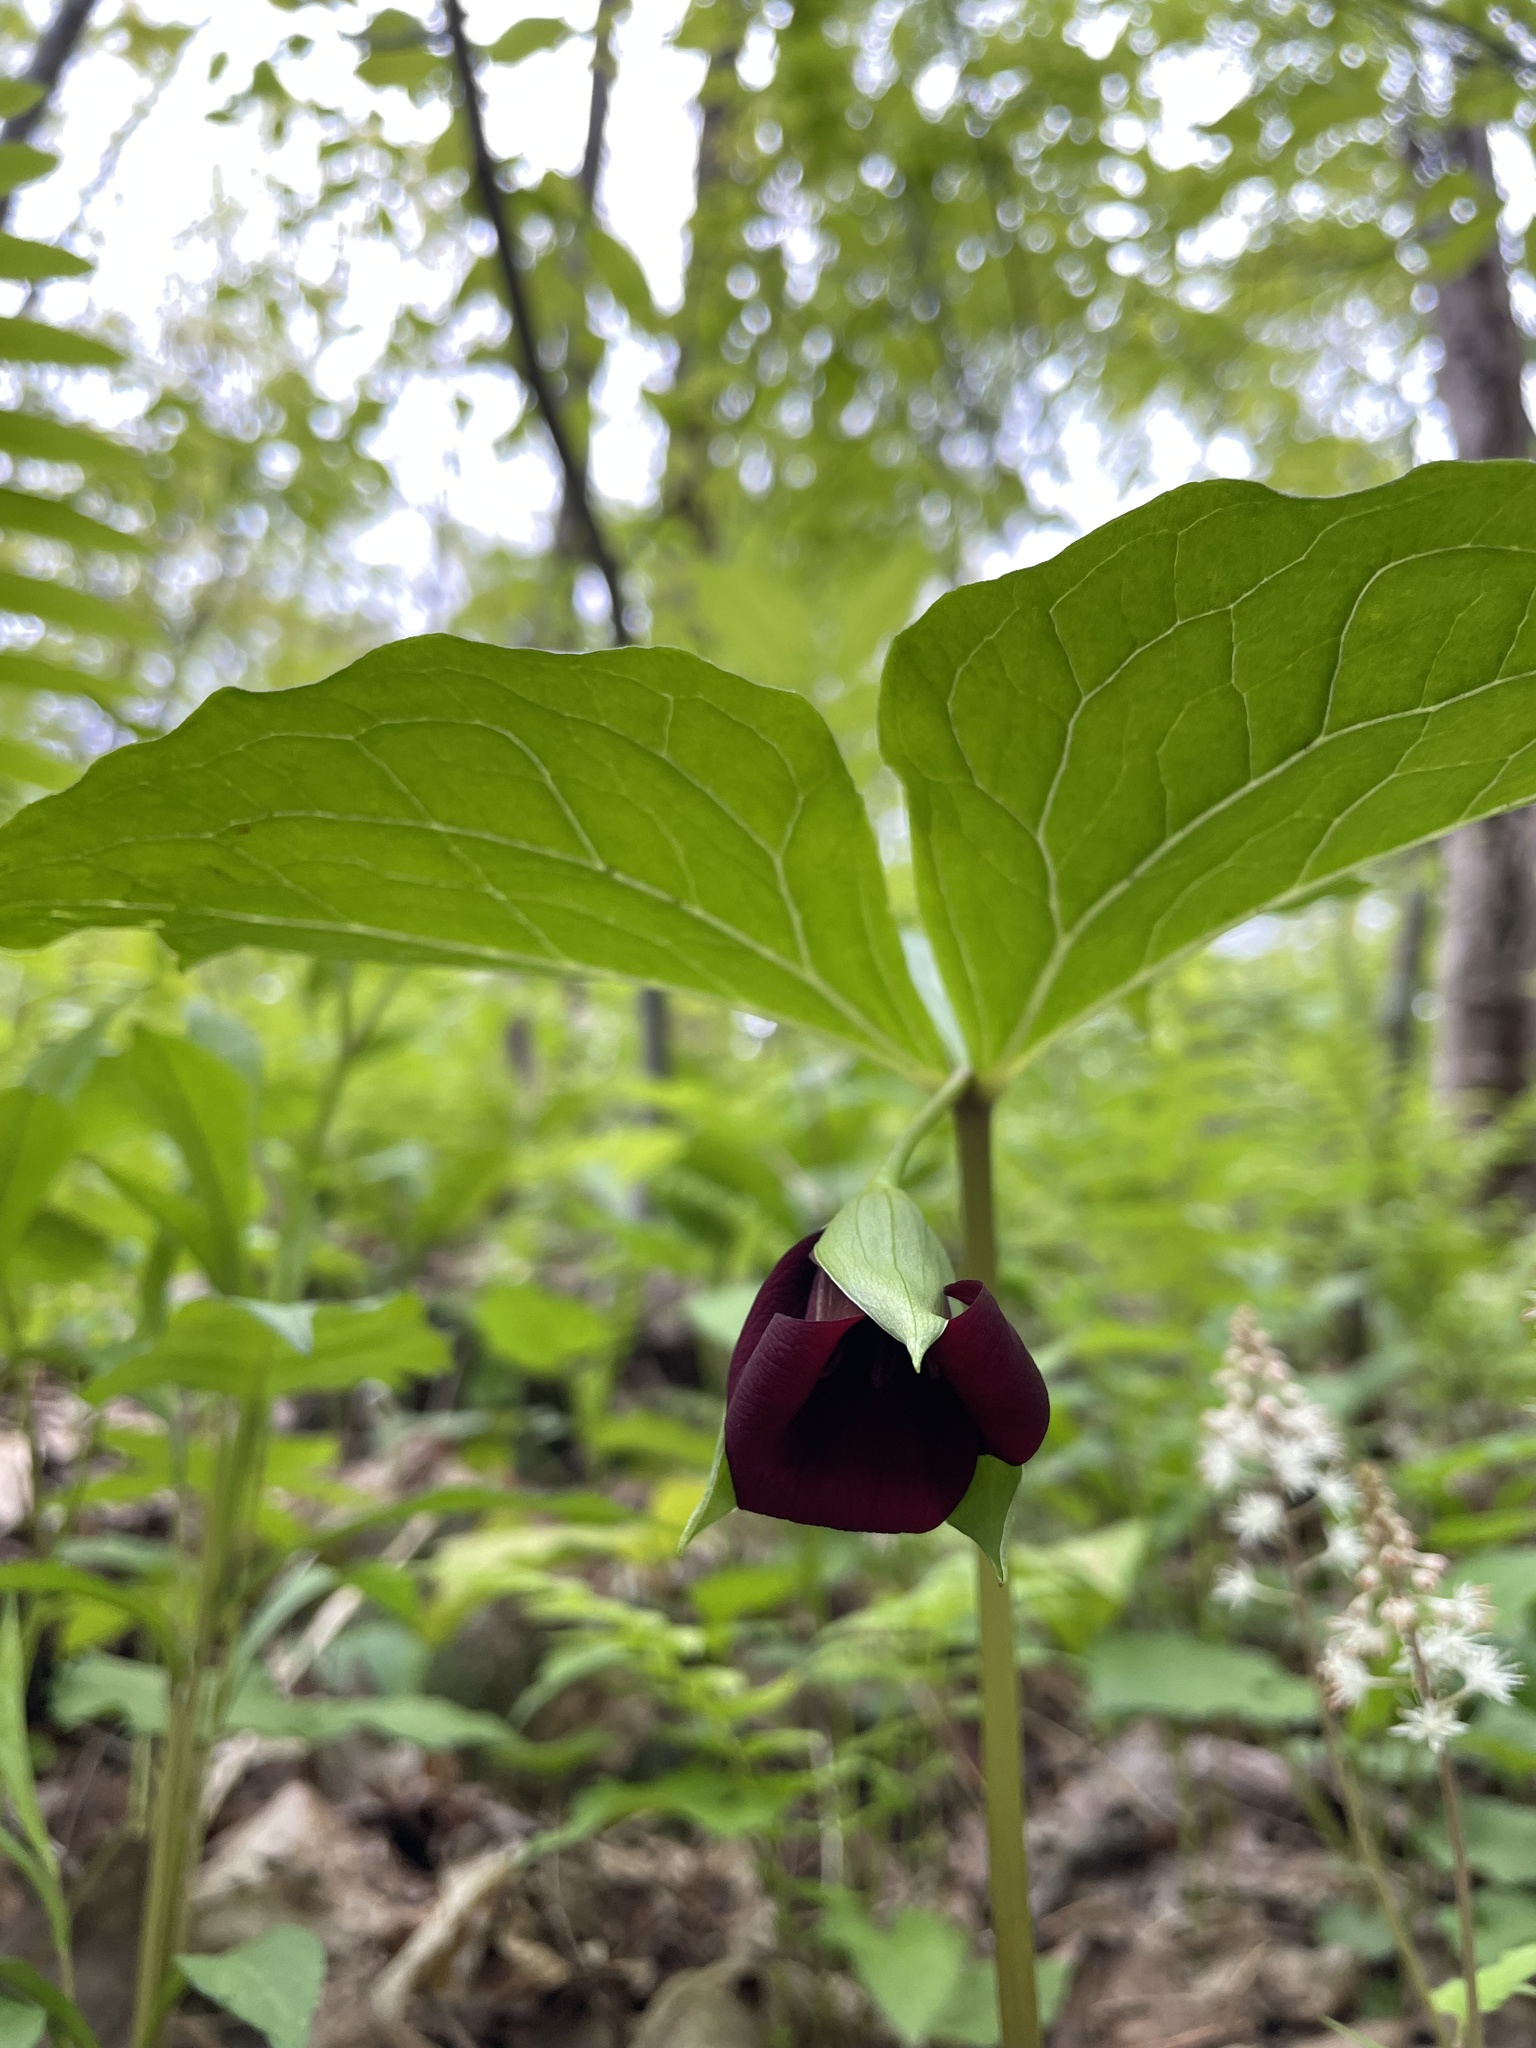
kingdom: Plantae
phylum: Tracheophyta
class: Liliopsida
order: Liliales
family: Melanthiaceae
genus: Trillium
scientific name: Trillium vaseyi
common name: Sweet trillium
